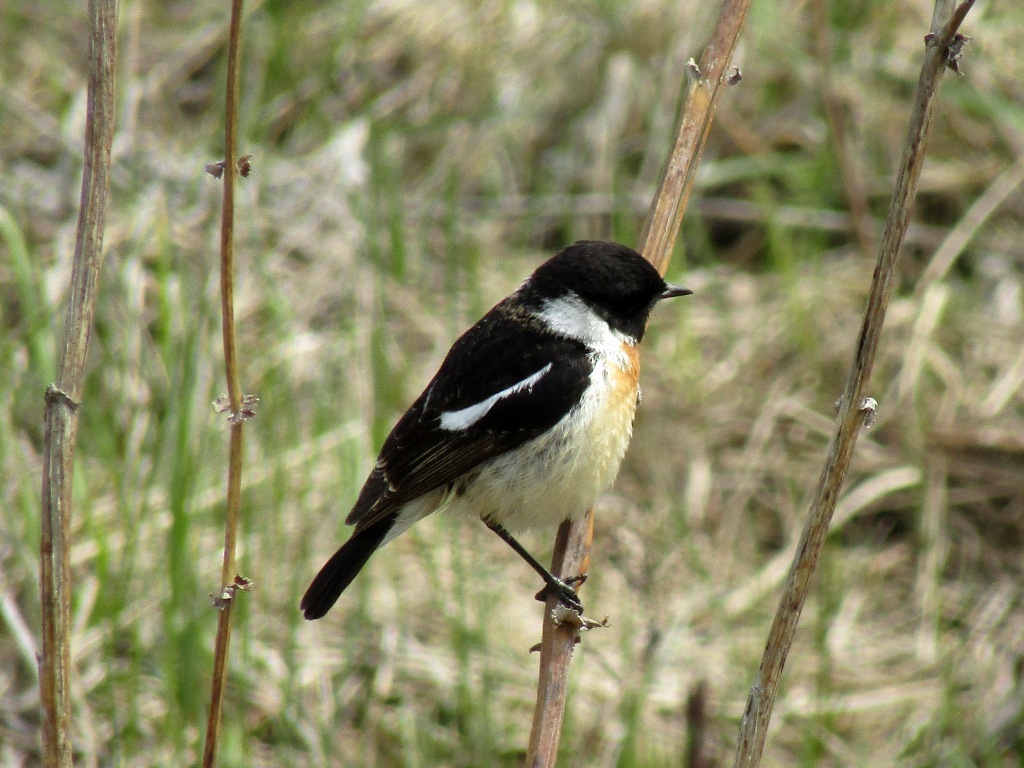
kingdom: Animalia
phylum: Chordata
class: Aves
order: Passeriformes
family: Muscicapidae
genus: Saxicola
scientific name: Saxicola maurus
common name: Siberian stonechat
